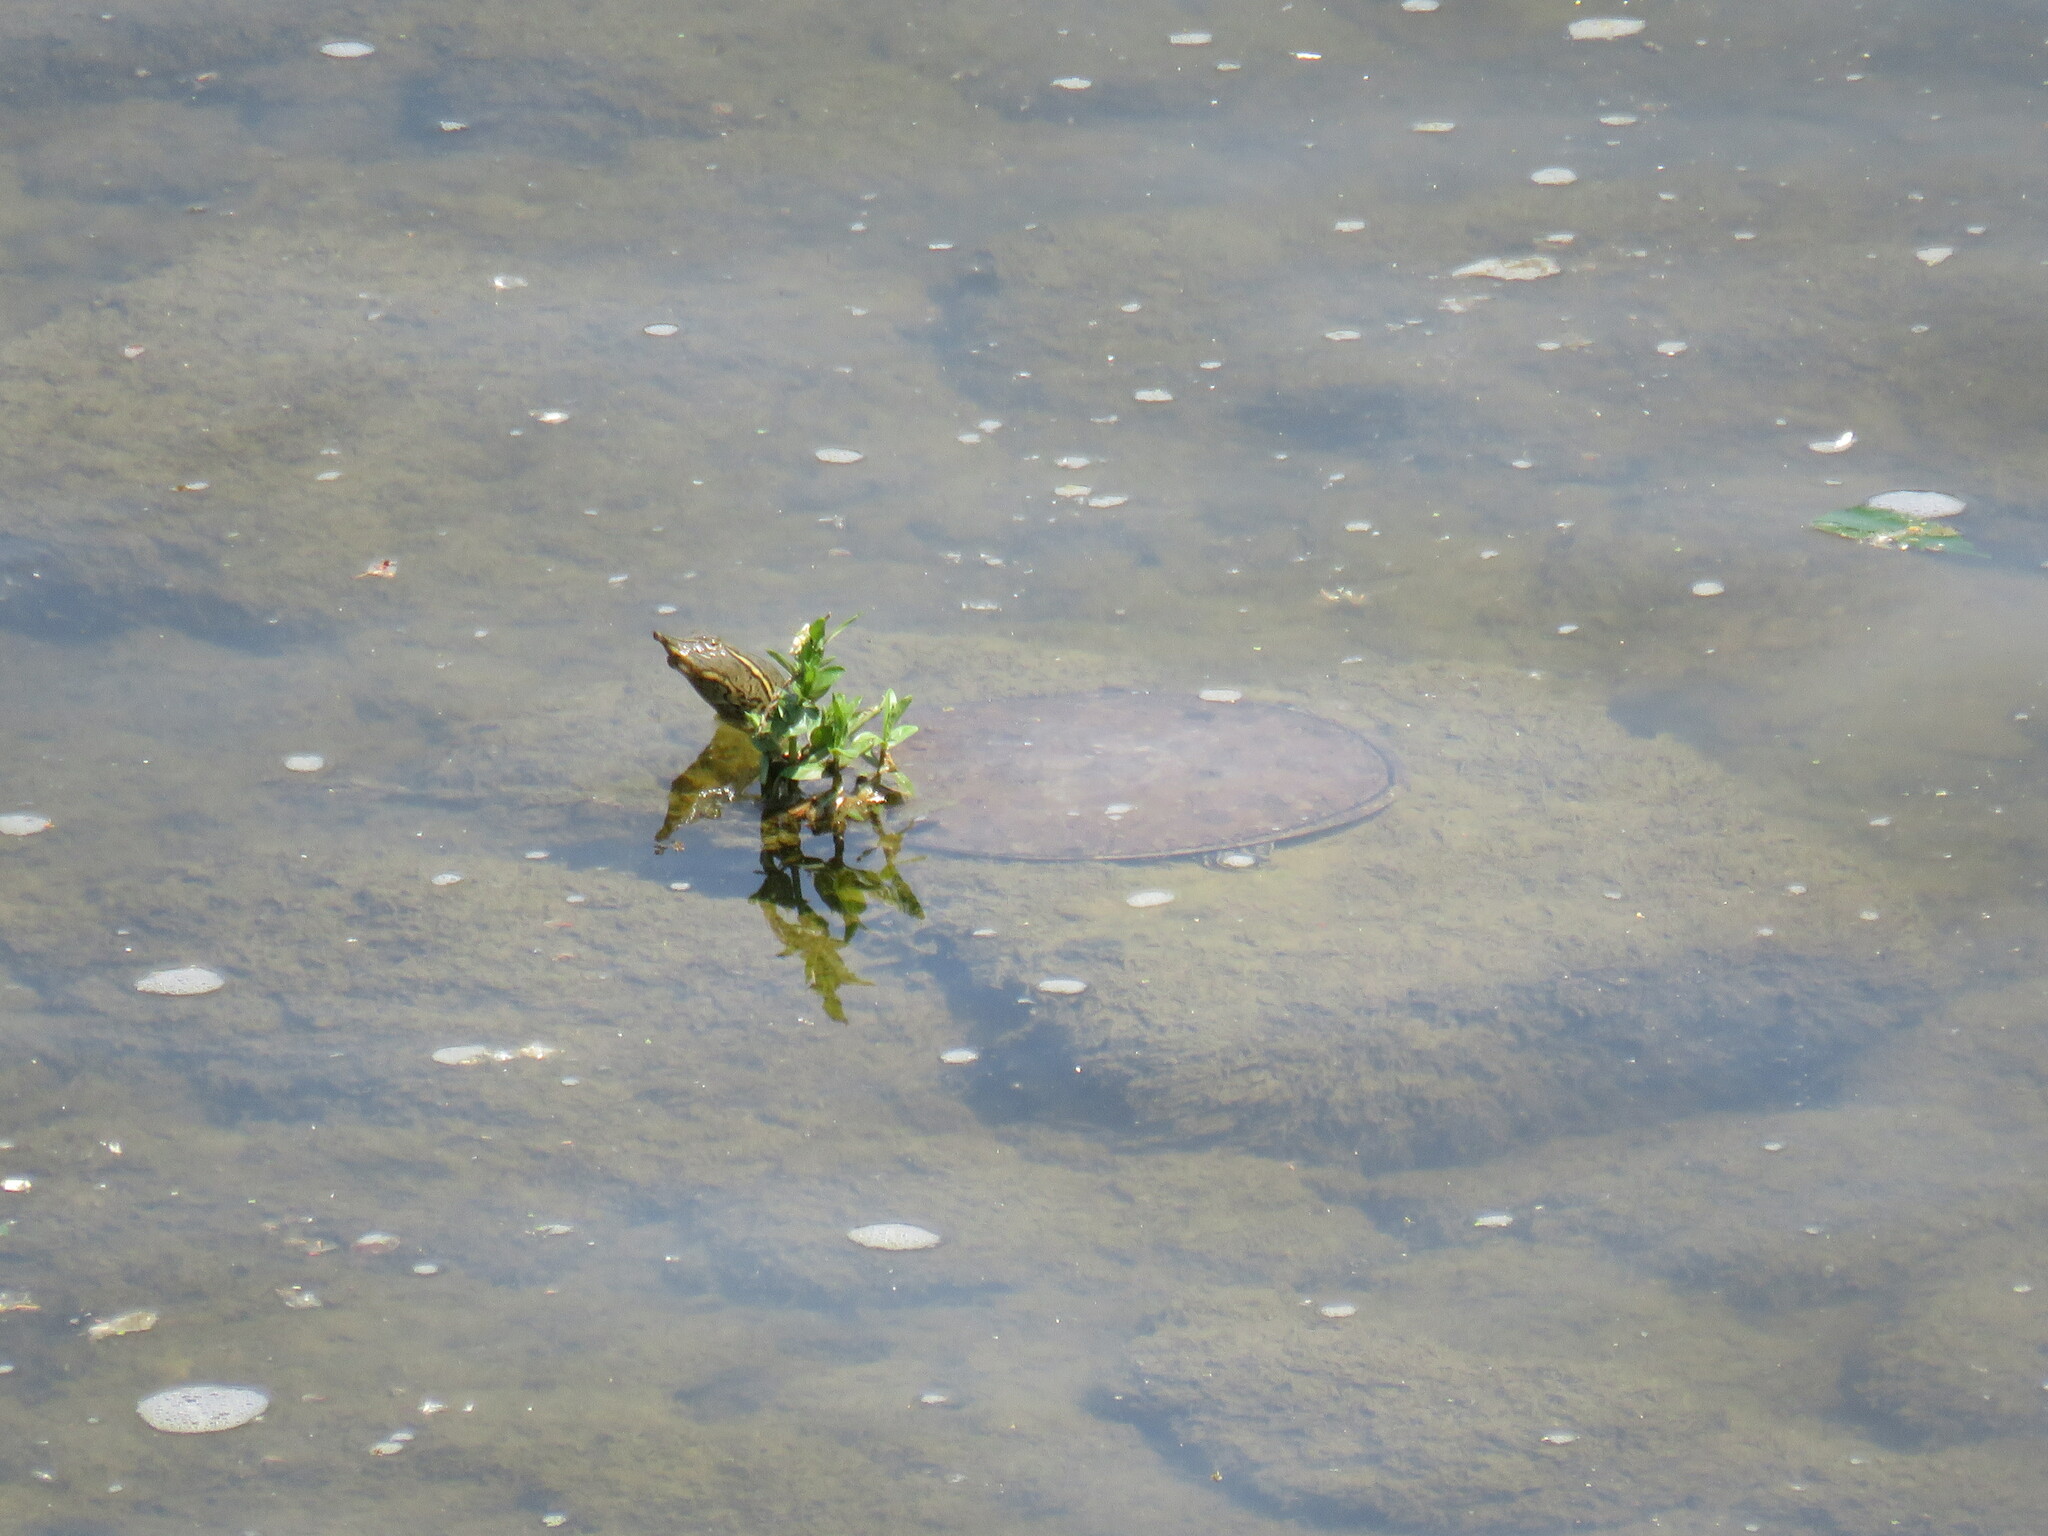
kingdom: Animalia
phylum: Chordata
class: Testudines
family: Trionychidae
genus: Apalone
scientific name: Apalone spinifera
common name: Spiny softshell turtle
